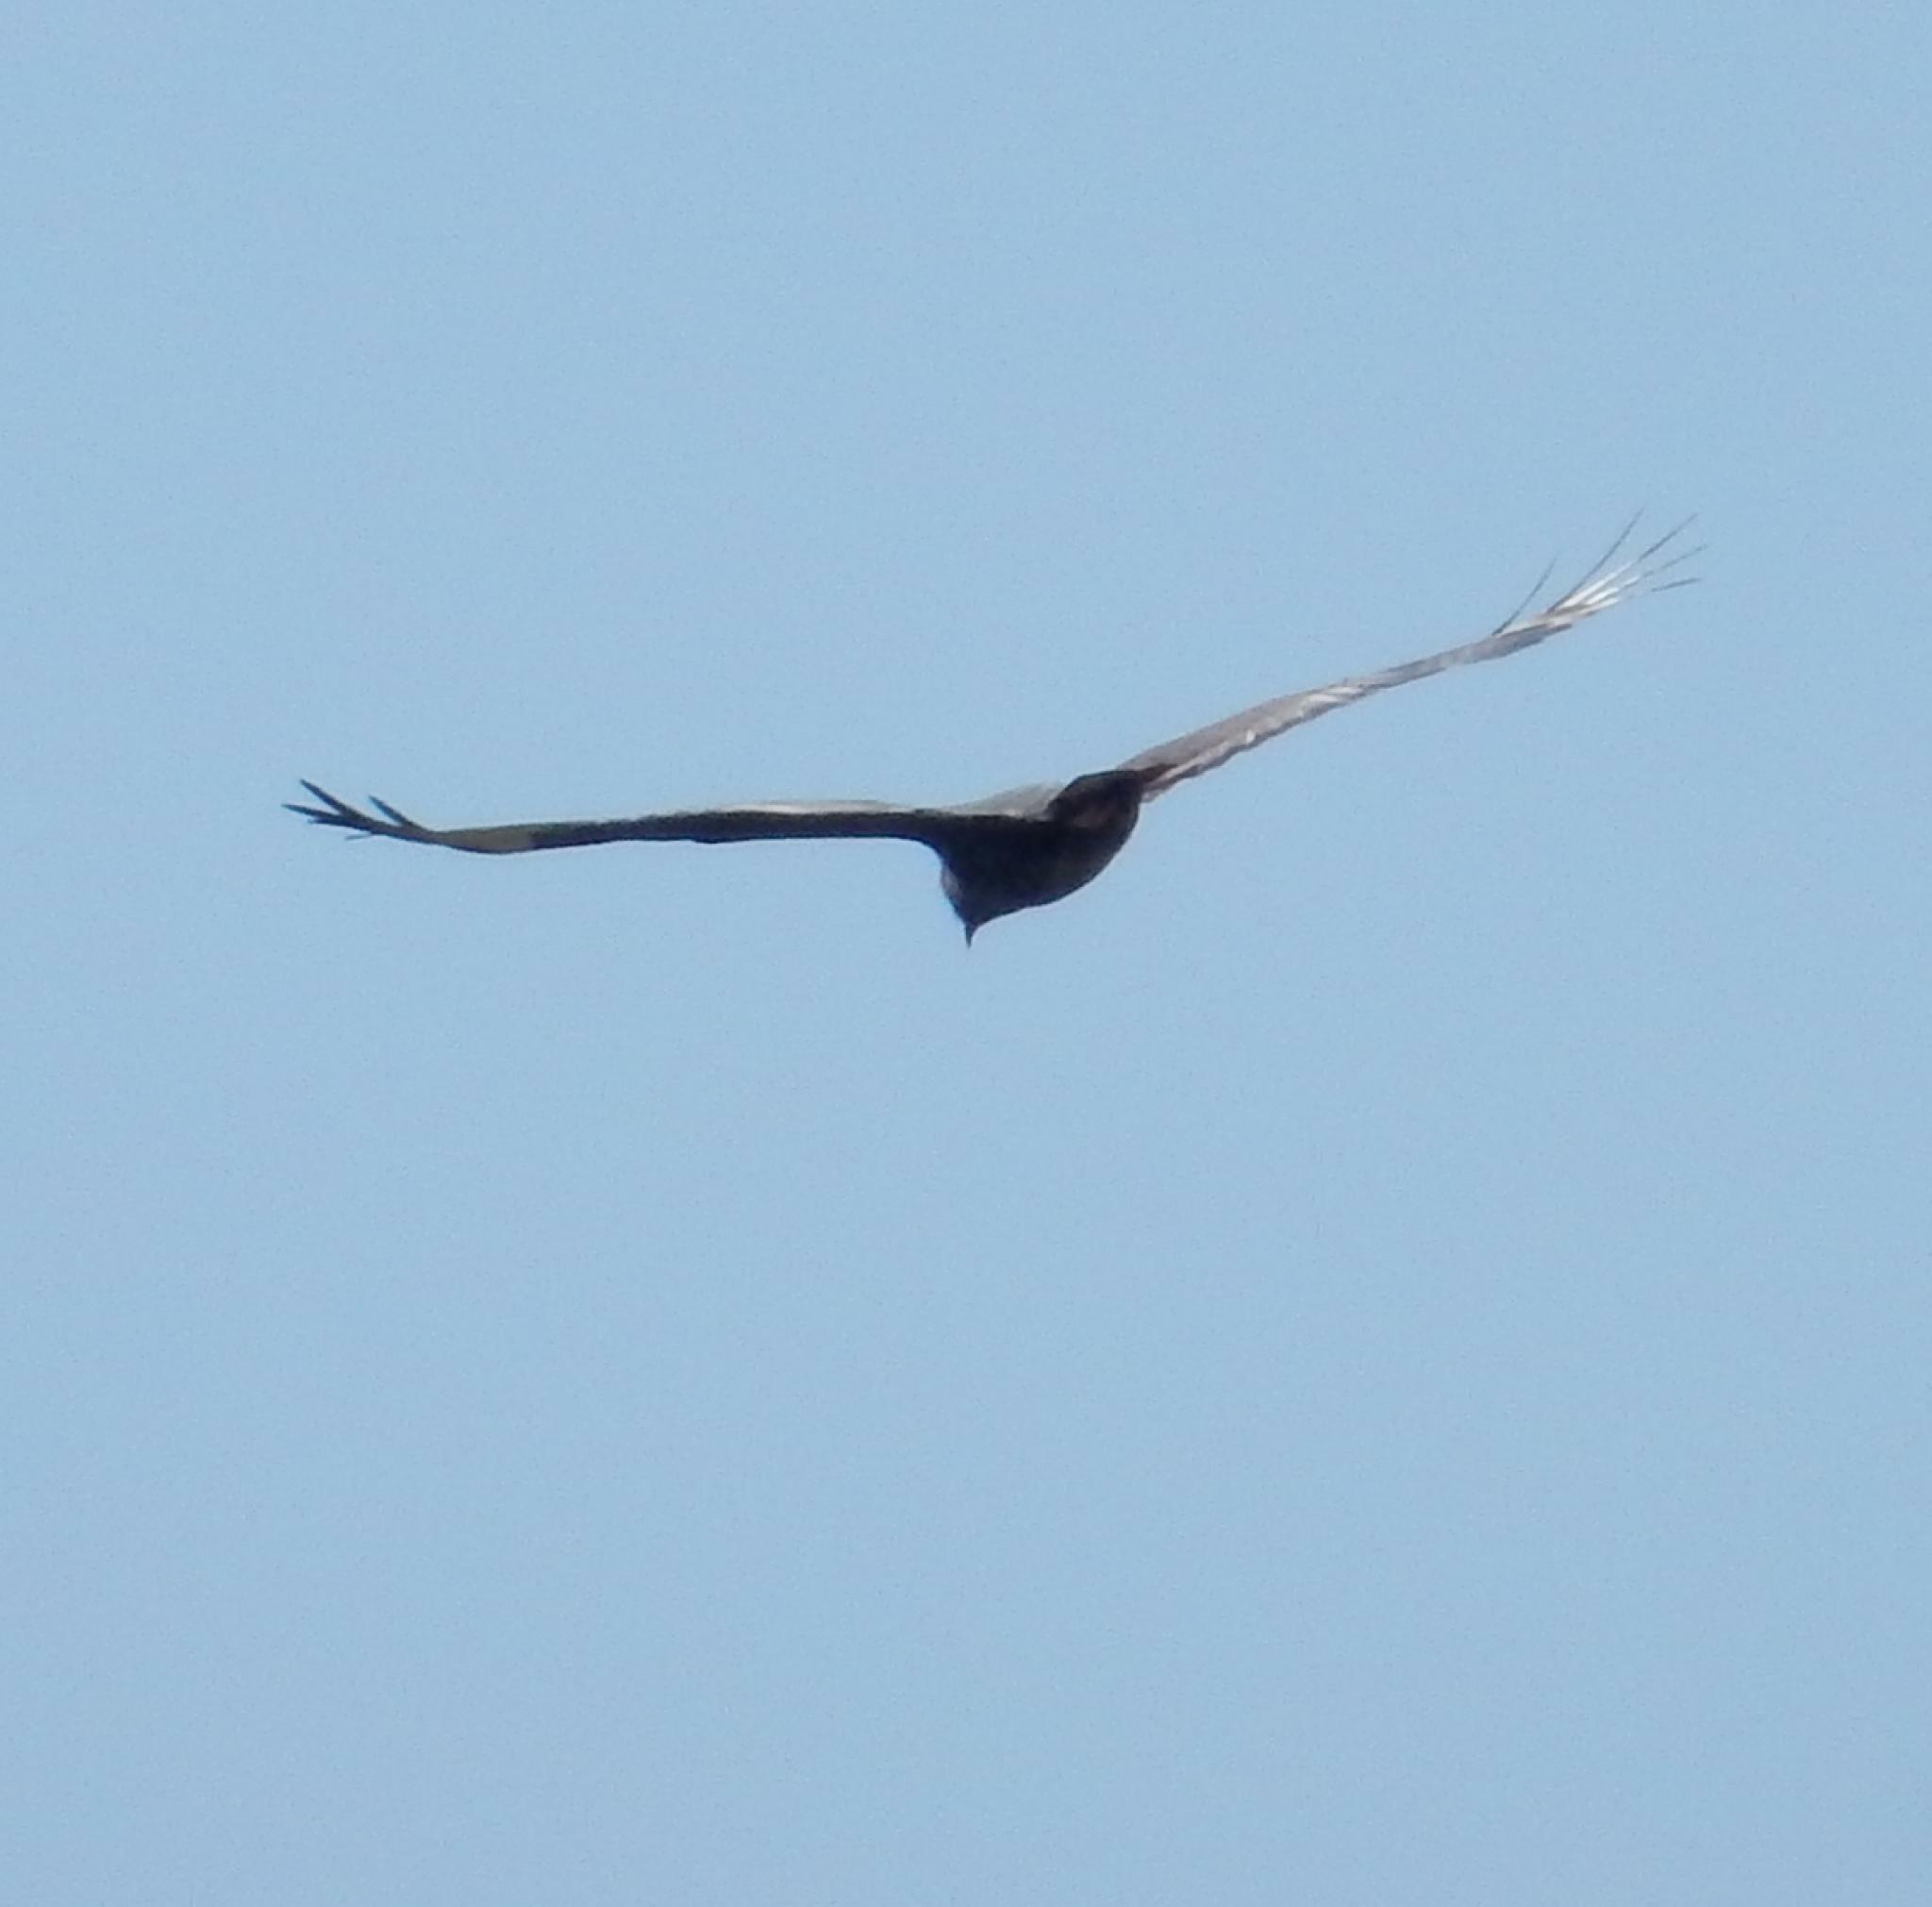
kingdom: Animalia
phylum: Chordata
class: Aves
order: Accipitriformes
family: Accipitridae
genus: Buteo
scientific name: Buteo rufofuscus
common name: Jackal buzzard
